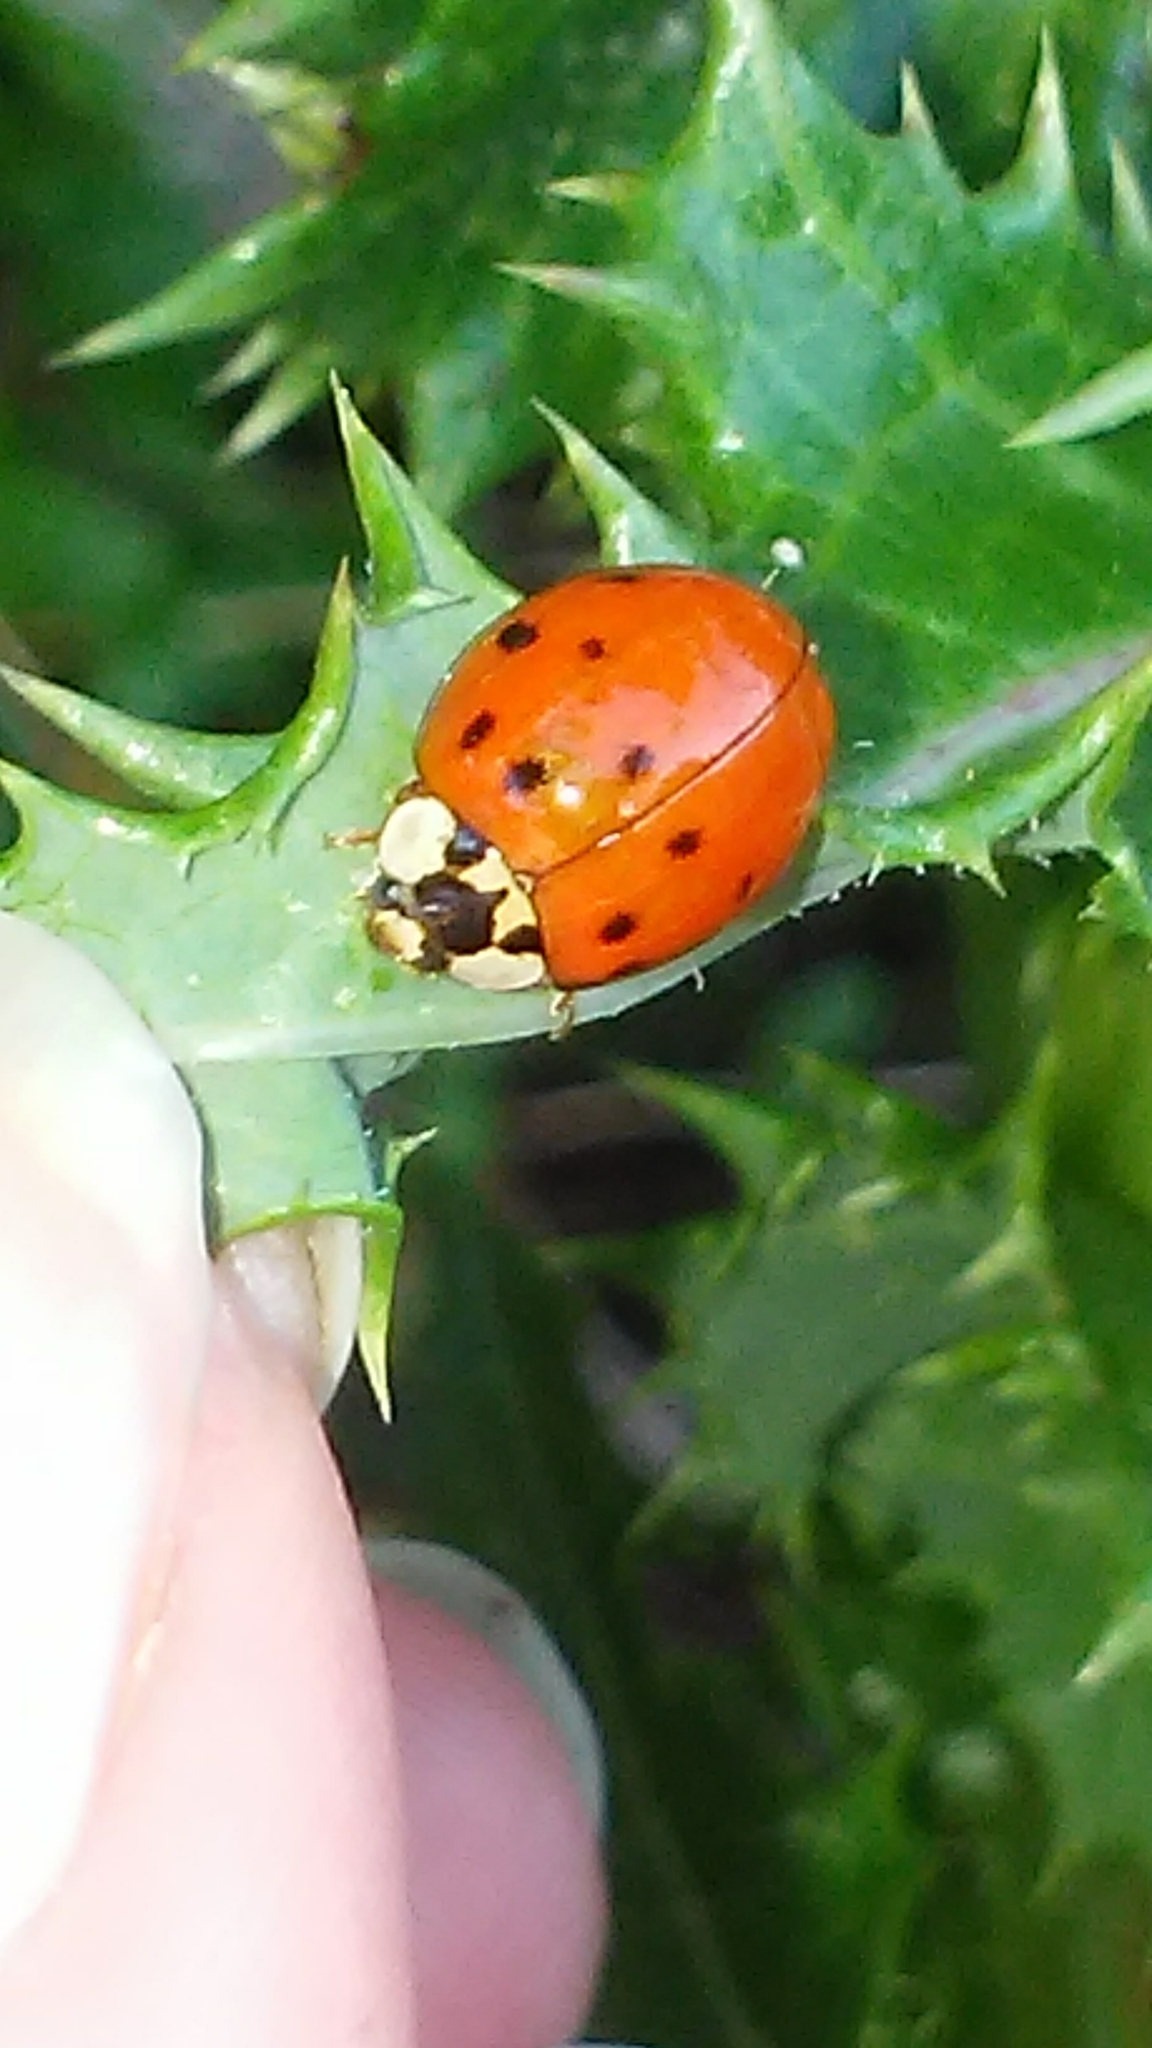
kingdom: Animalia
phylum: Arthropoda
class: Insecta
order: Coleoptera
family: Coccinellidae
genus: Harmonia
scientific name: Harmonia axyridis
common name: Harlequin ladybird
